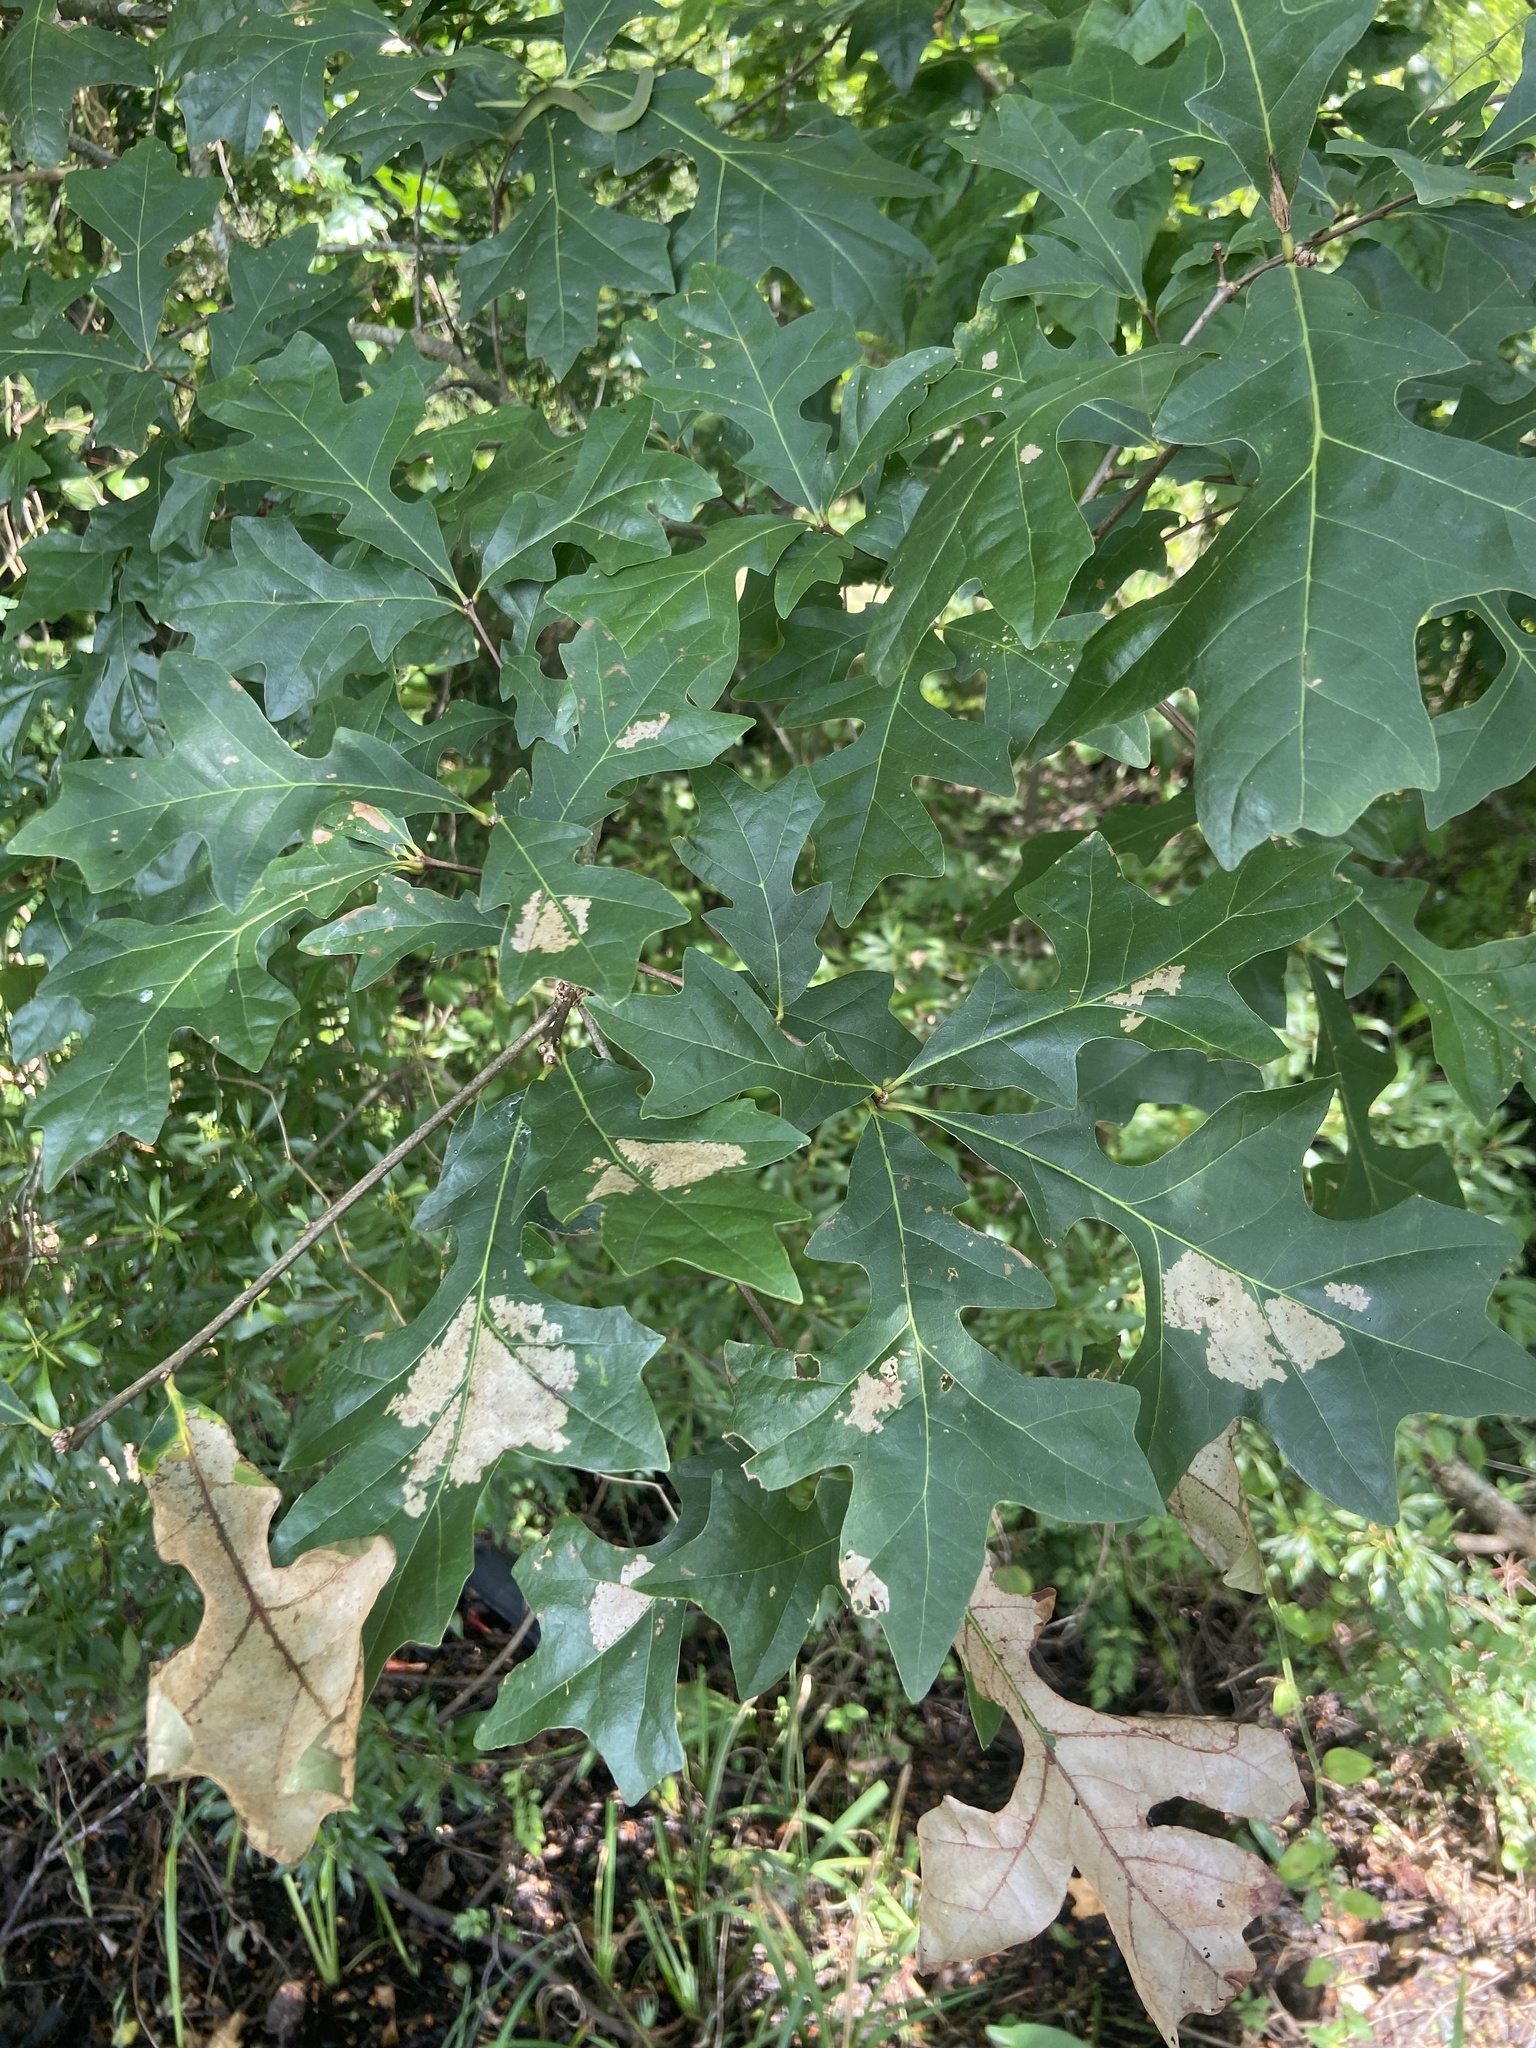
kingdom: Plantae
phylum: Tracheophyta
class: Magnoliopsida
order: Fagales
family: Fagaceae
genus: Quercus
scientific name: Quercus lyrata
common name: Overcup oak
